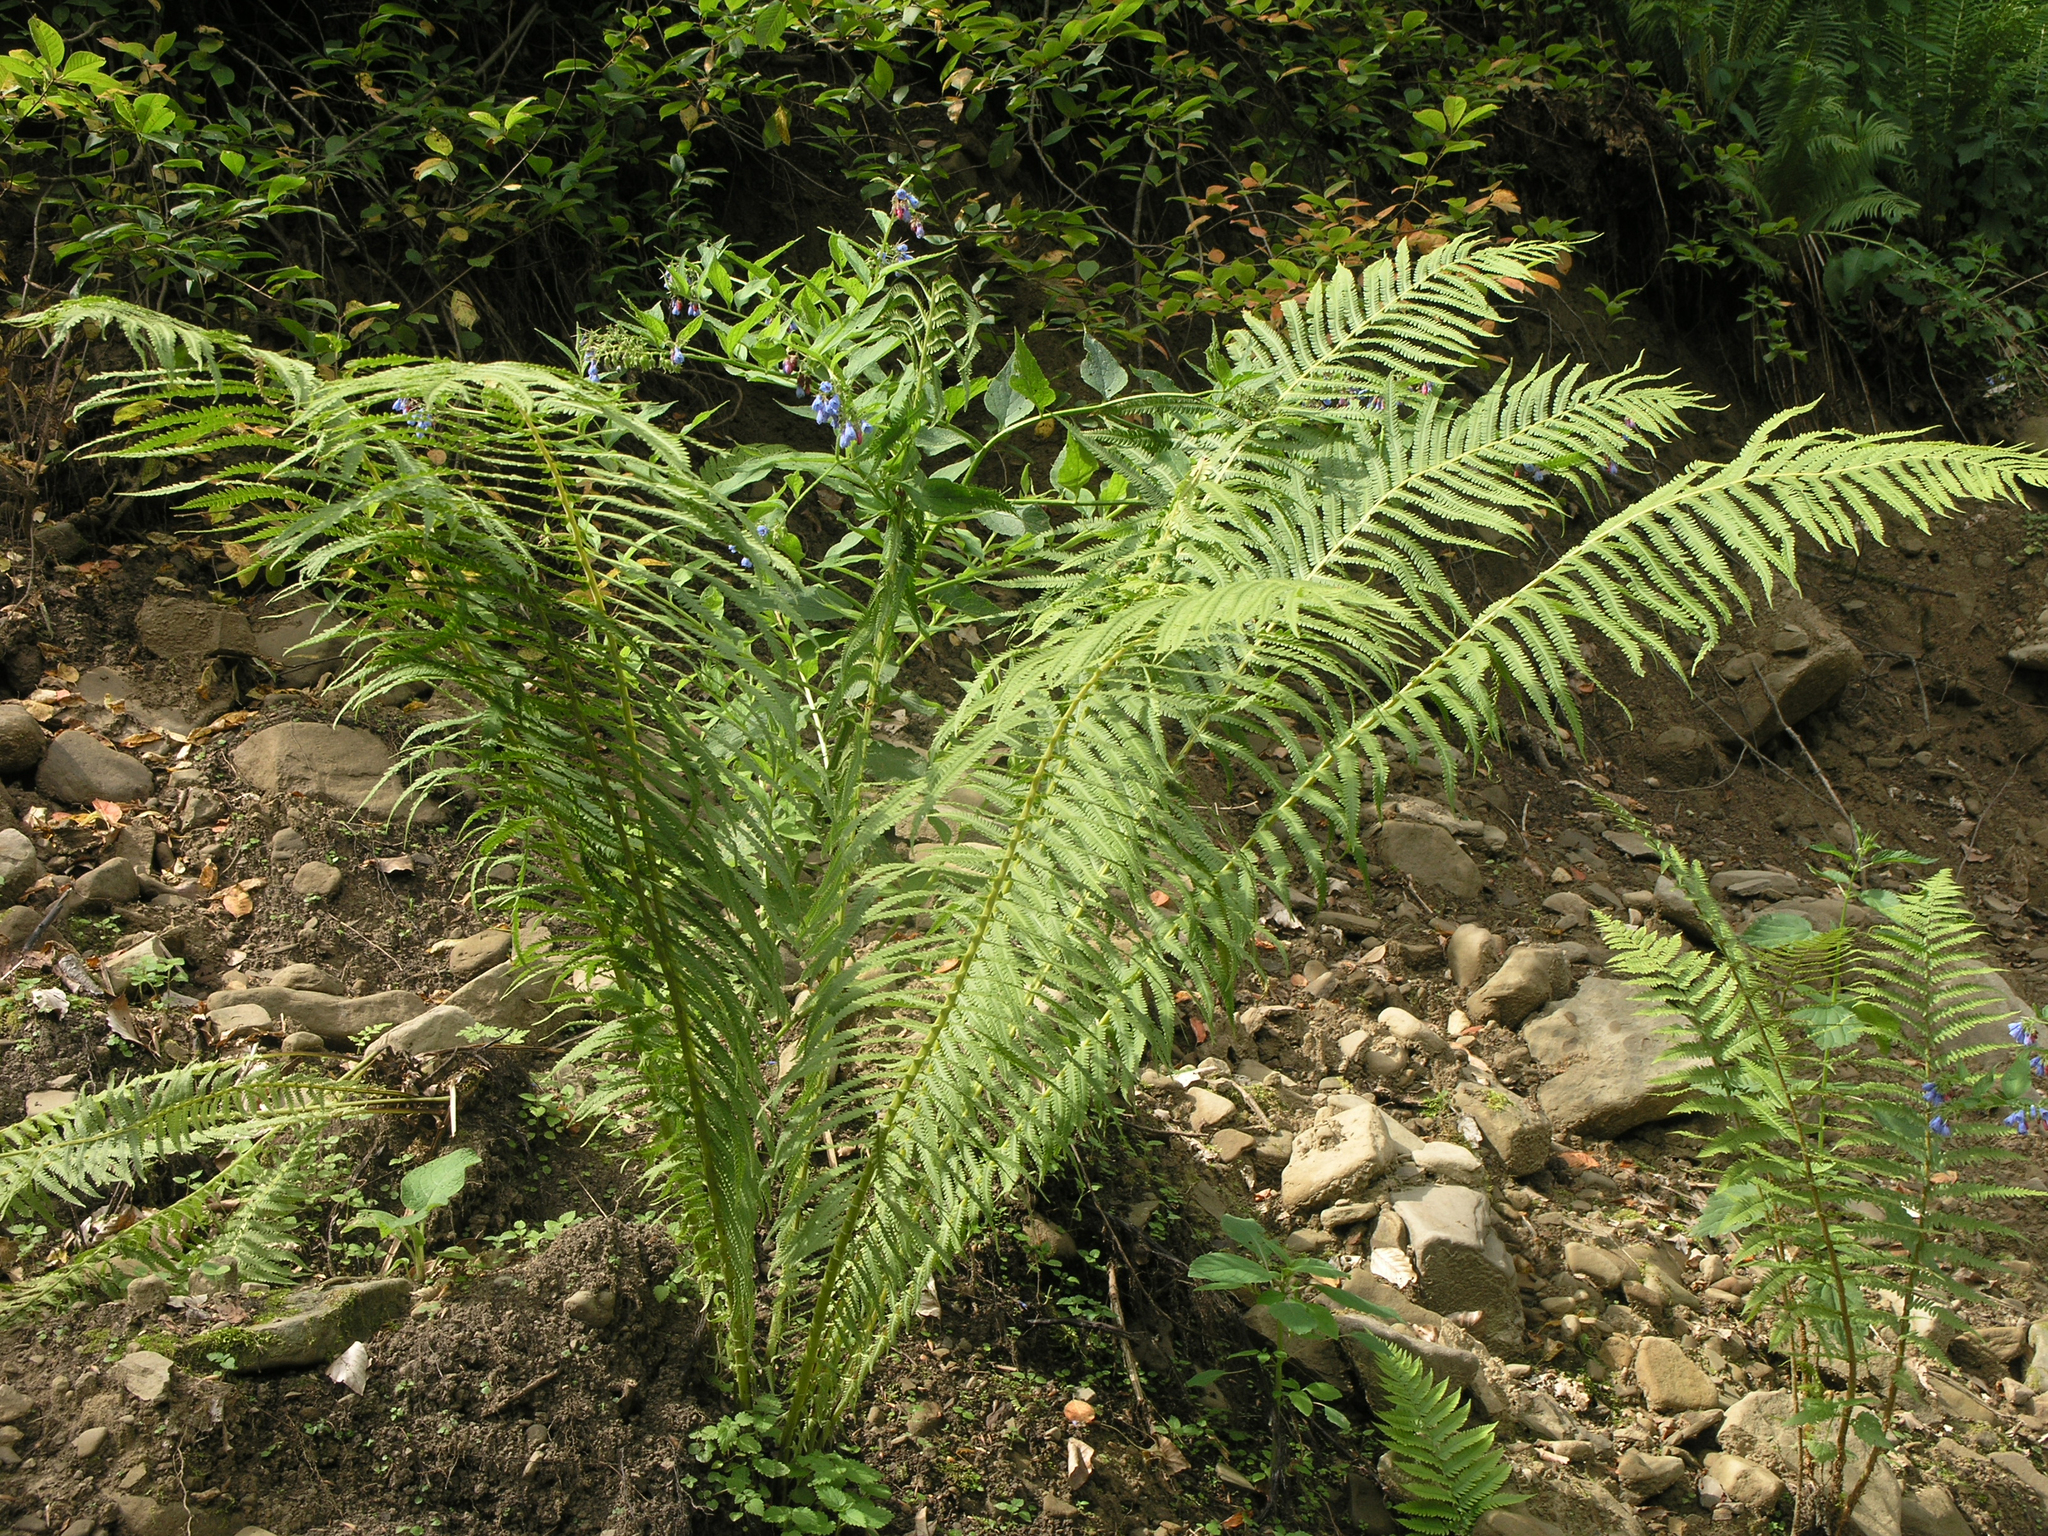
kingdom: Plantae
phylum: Tracheophyta
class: Polypodiopsida
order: Polypodiales
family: Onocleaceae
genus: Matteuccia
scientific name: Matteuccia struthiopteris
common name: Ostrich fern
